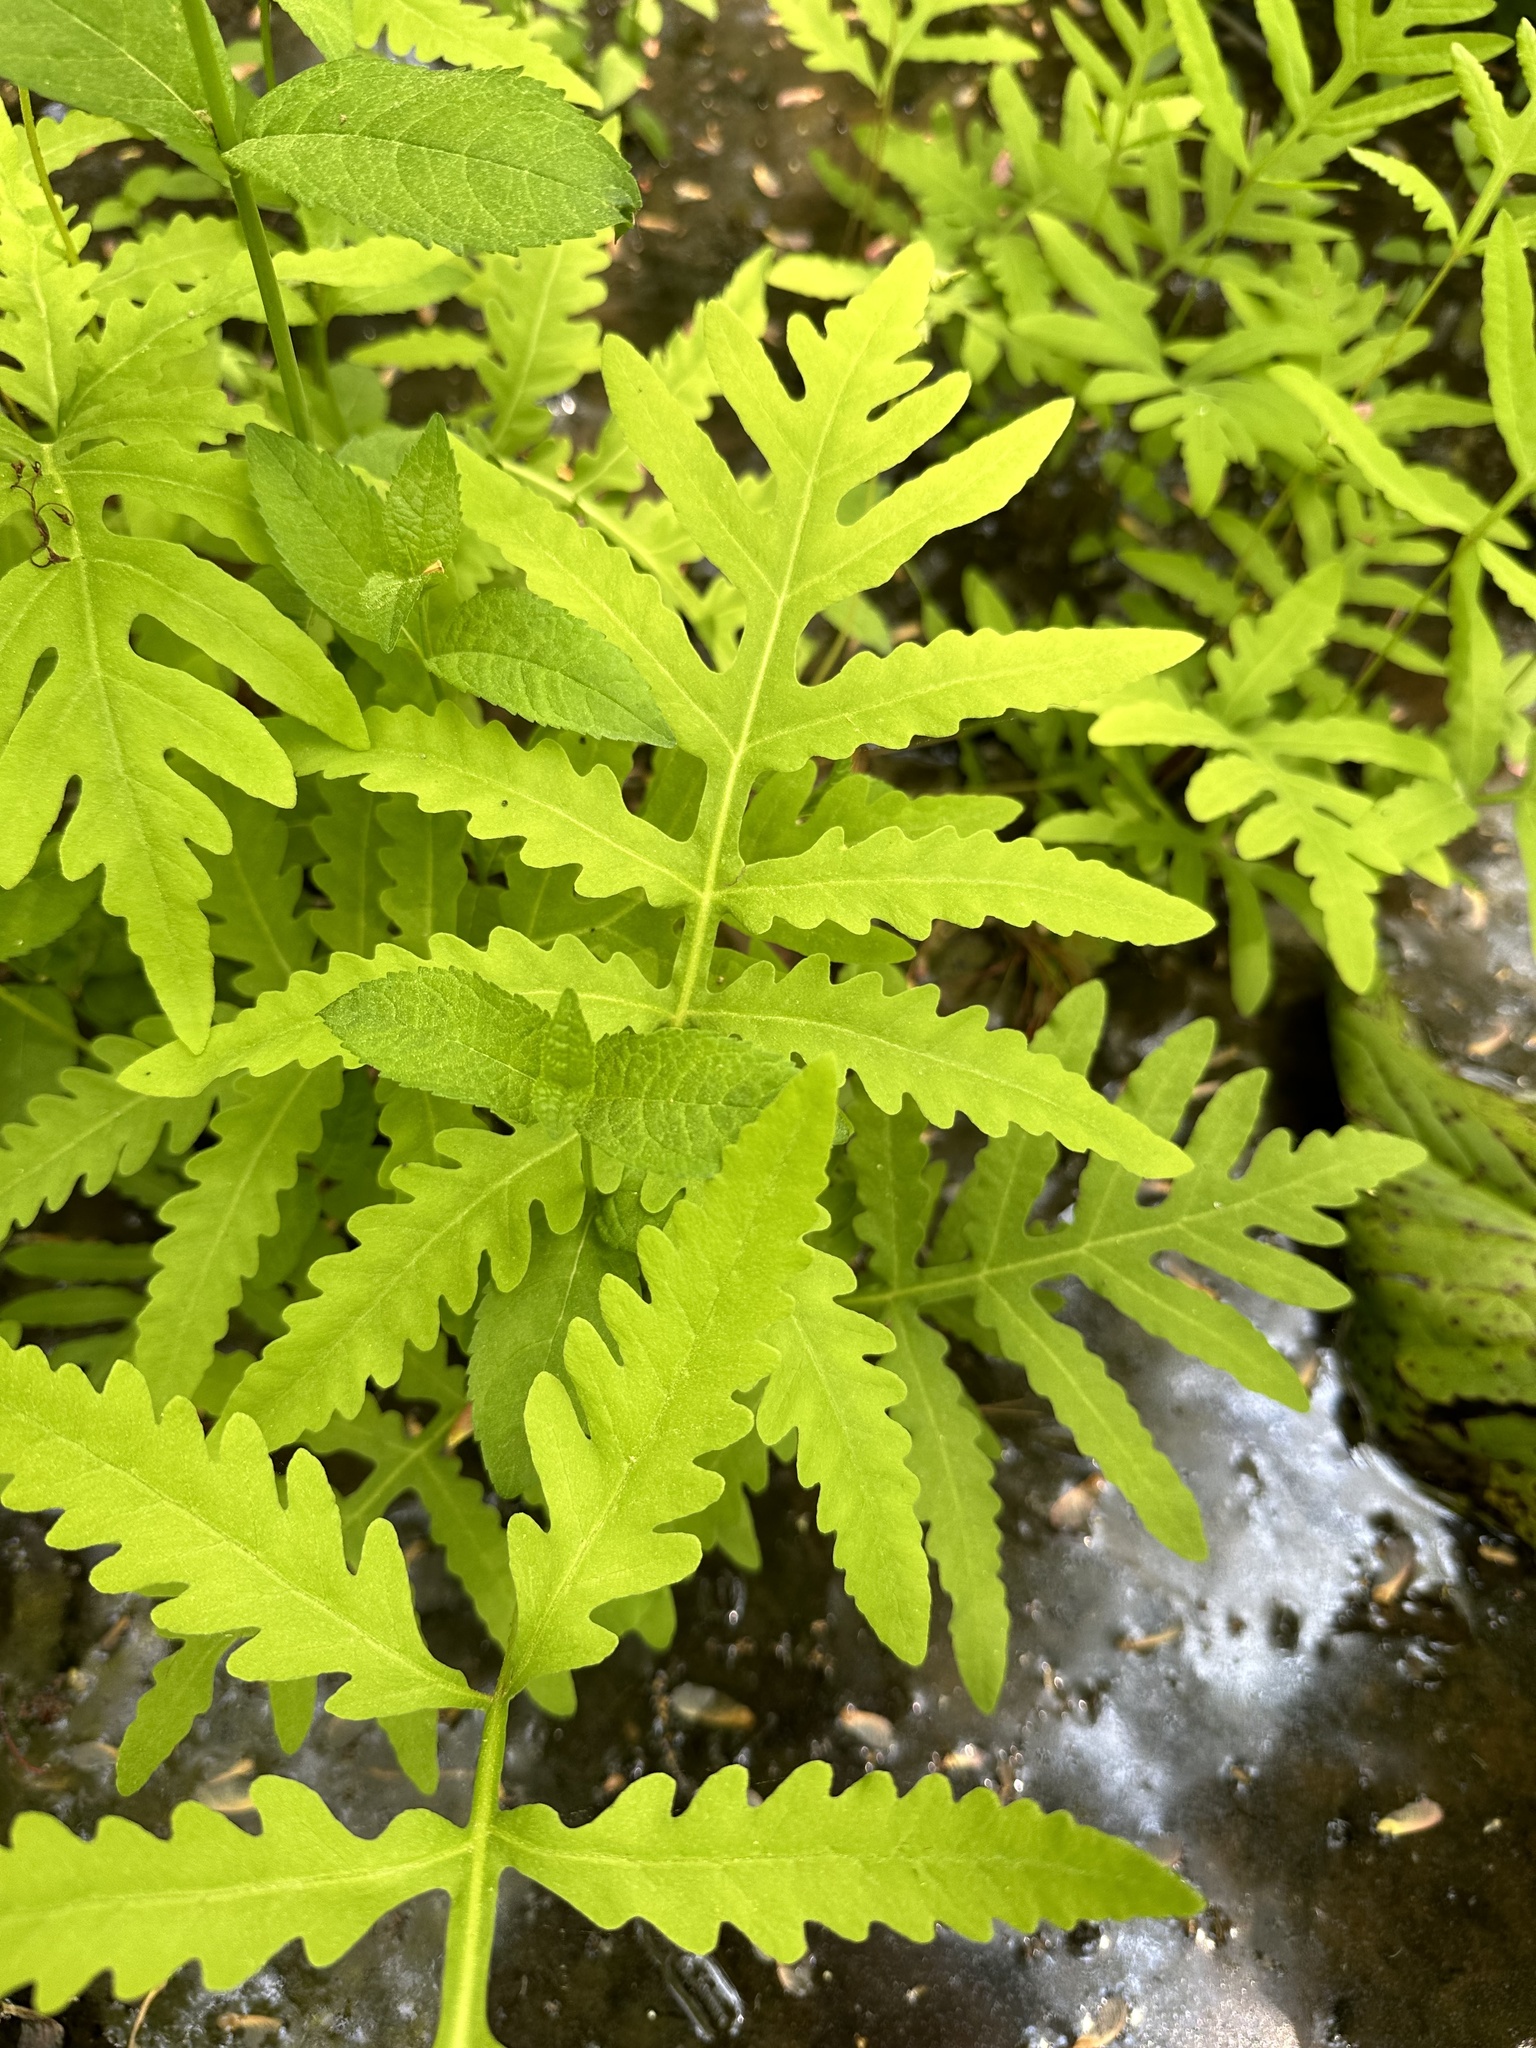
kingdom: Plantae
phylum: Tracheophyta
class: Polypodiopsida
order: Polypodiales
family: Onocleaceae
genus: Onoclea
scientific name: Onoclea sensibilis
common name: Sensitive fern
